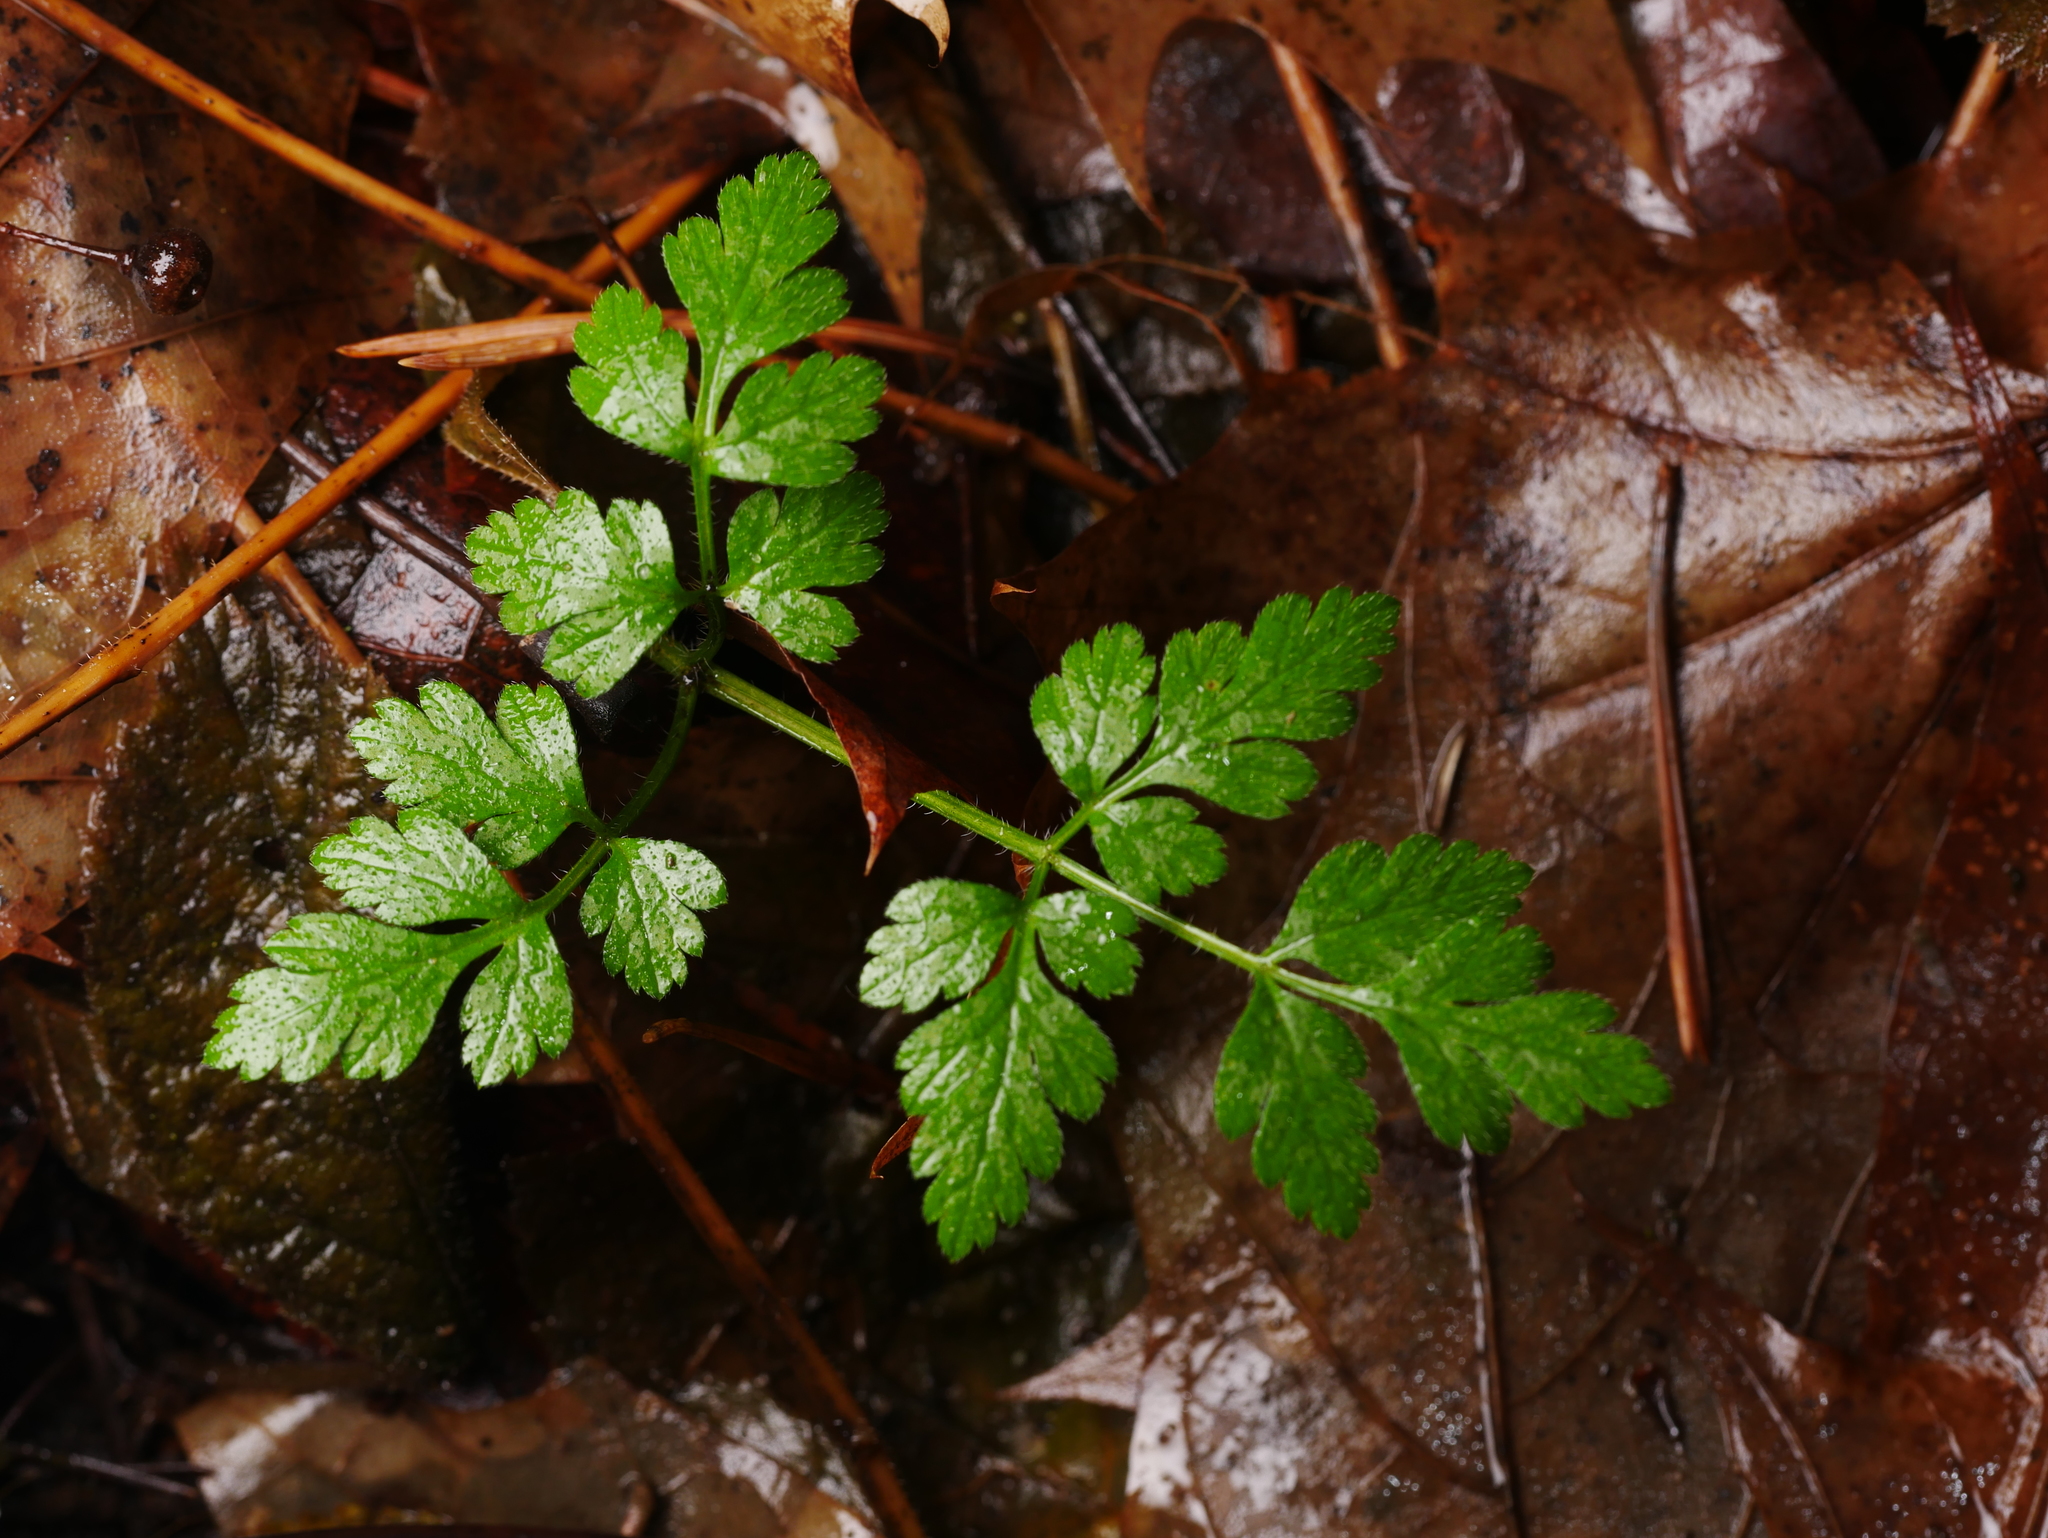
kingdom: Plantae
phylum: Tracheophyta
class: Magnoliopsida
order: Apiales
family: Apiaceae
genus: Chaerophyllum
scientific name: Chaerophyllum temulum
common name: Rough chervil
